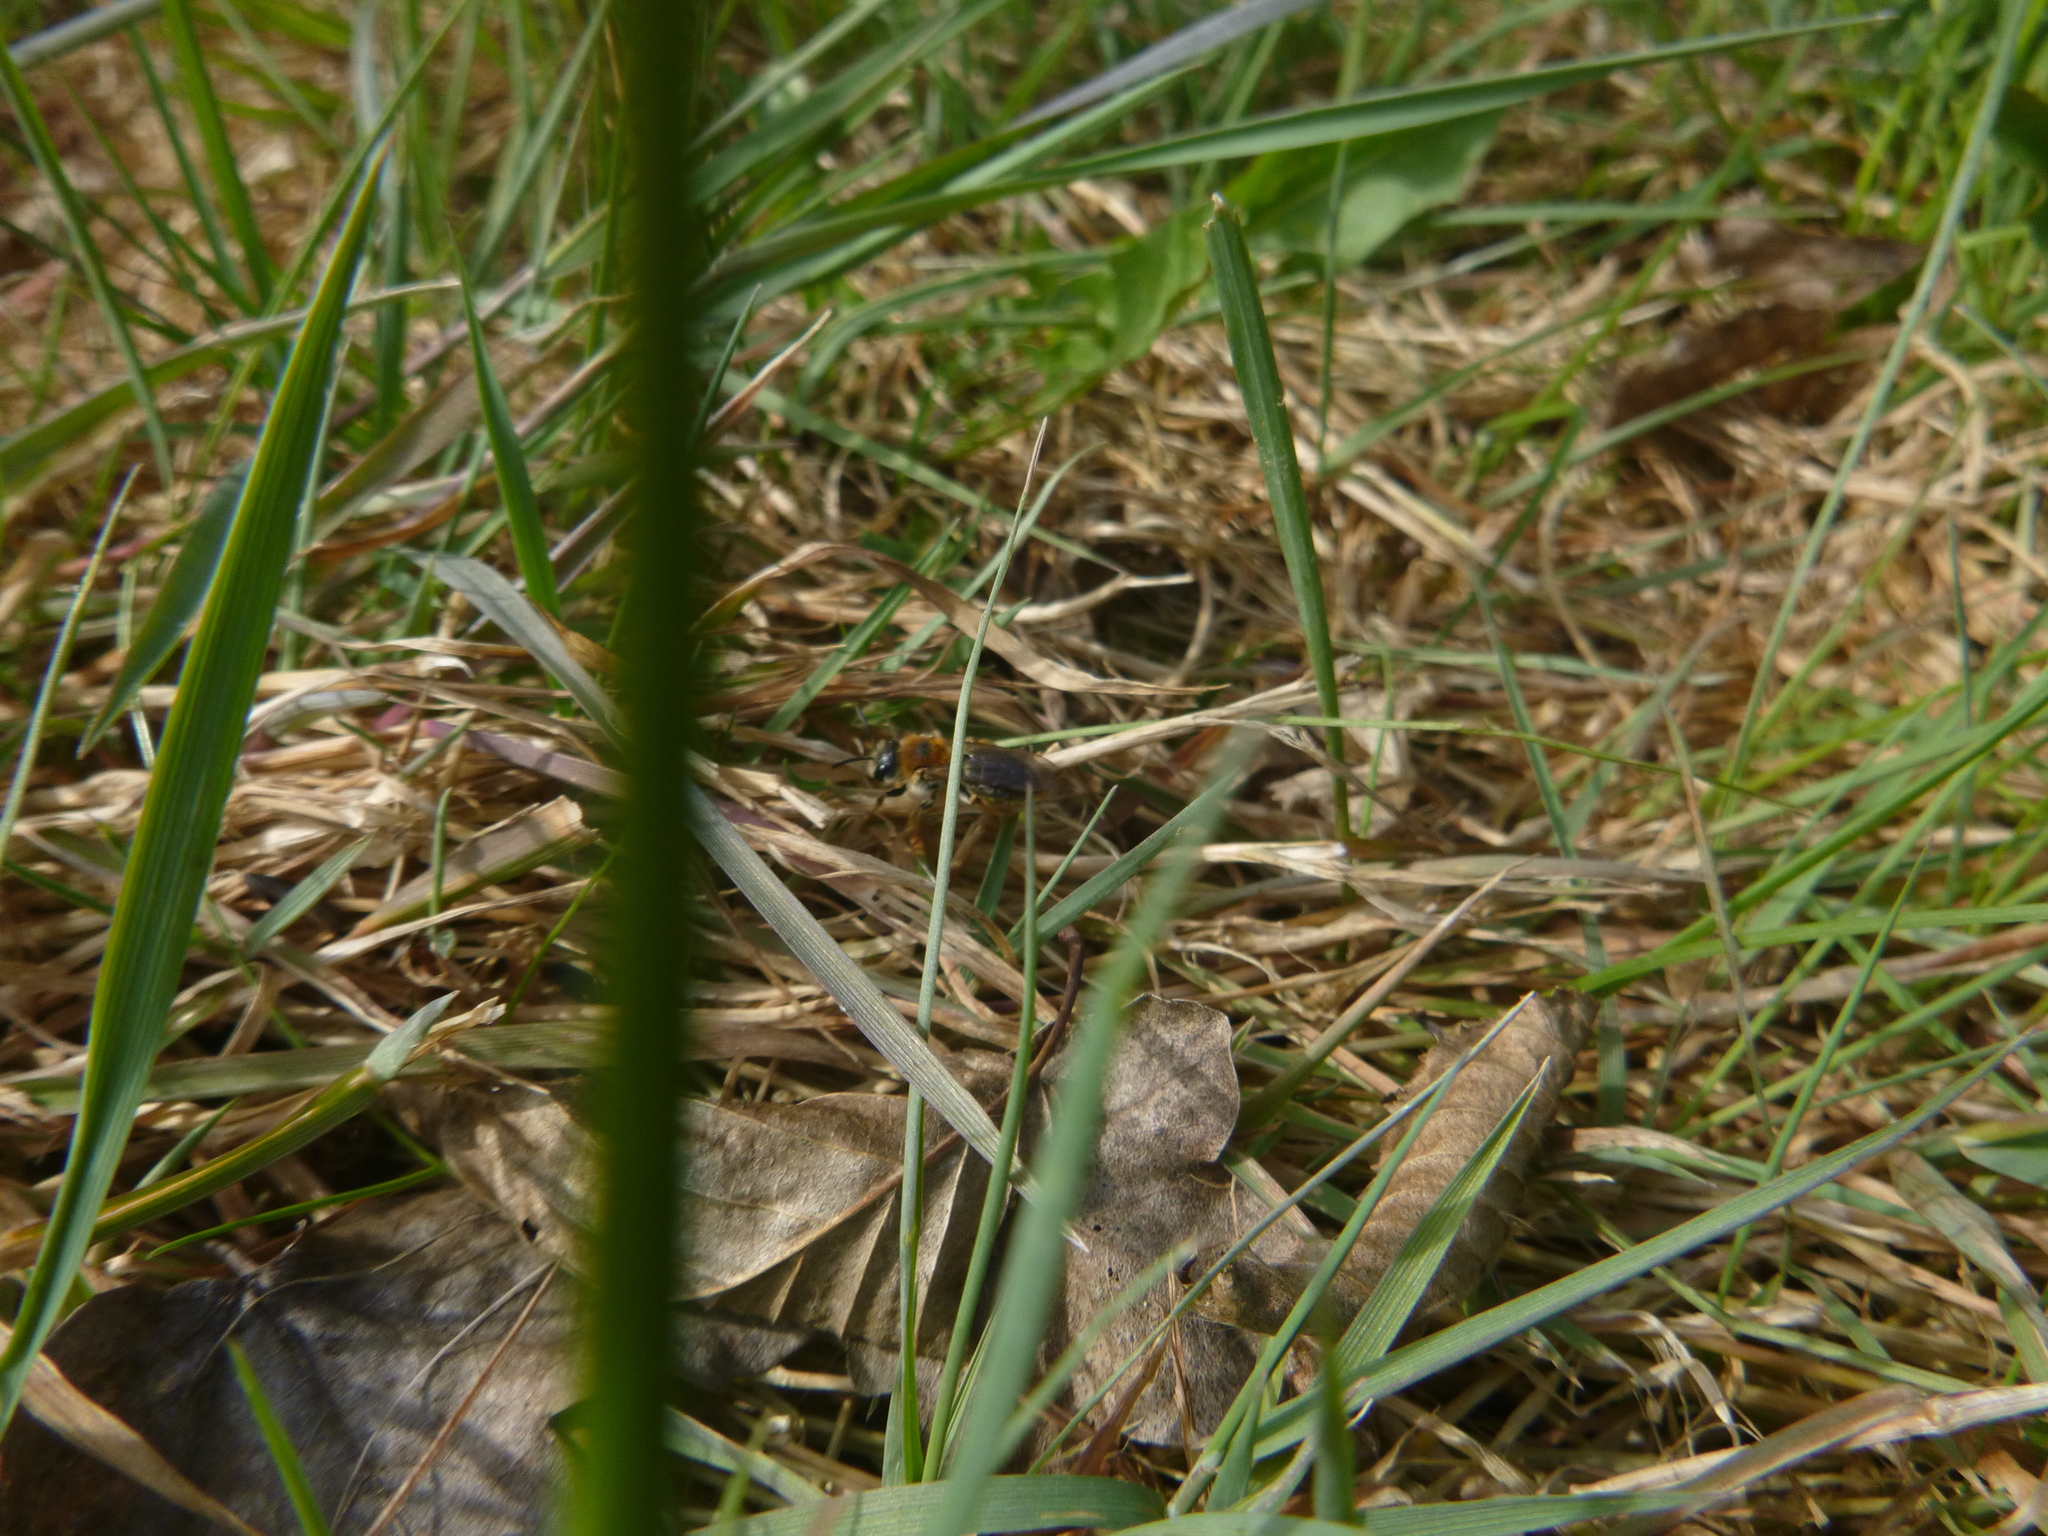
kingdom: Animalia
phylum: Arthropoda
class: Insecta
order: Hymenoptera
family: Andrenidae
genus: Andrena
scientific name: Andrena haemorrhoa
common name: Early mining bee
